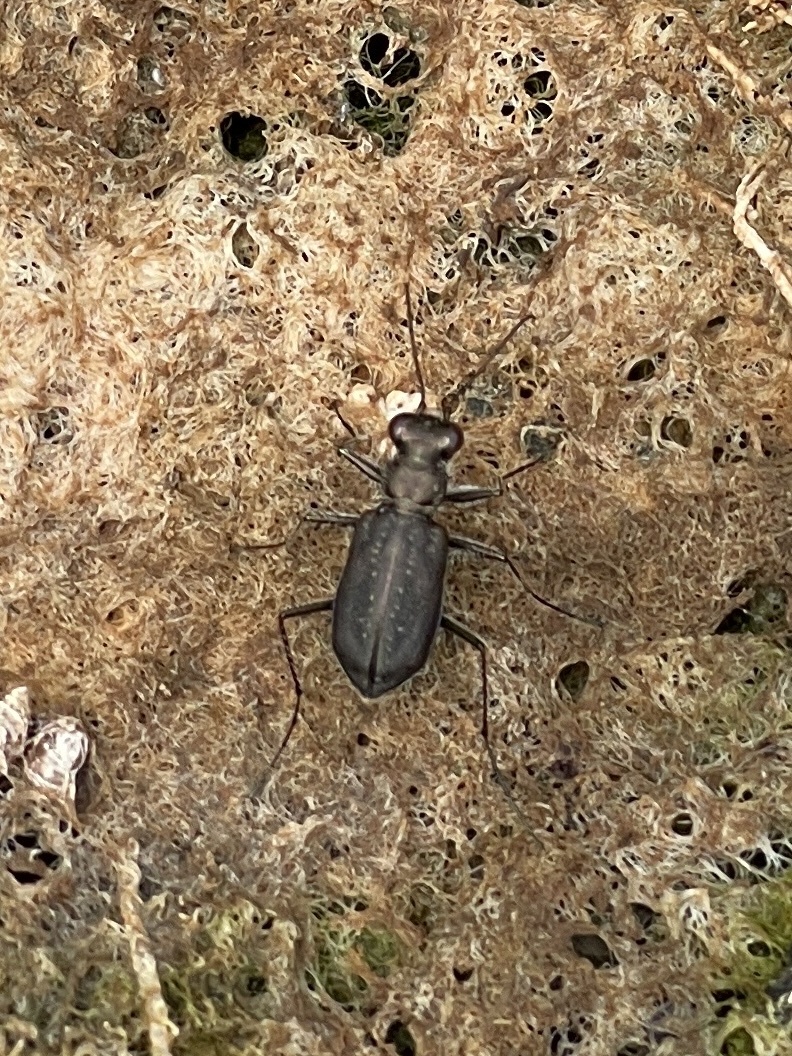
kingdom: Animalia
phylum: Arthropoda
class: Insecta
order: Coleoptera
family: Carabidae
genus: Cicindela
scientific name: Cicindela punctulata
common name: Punctured tiger beetle
